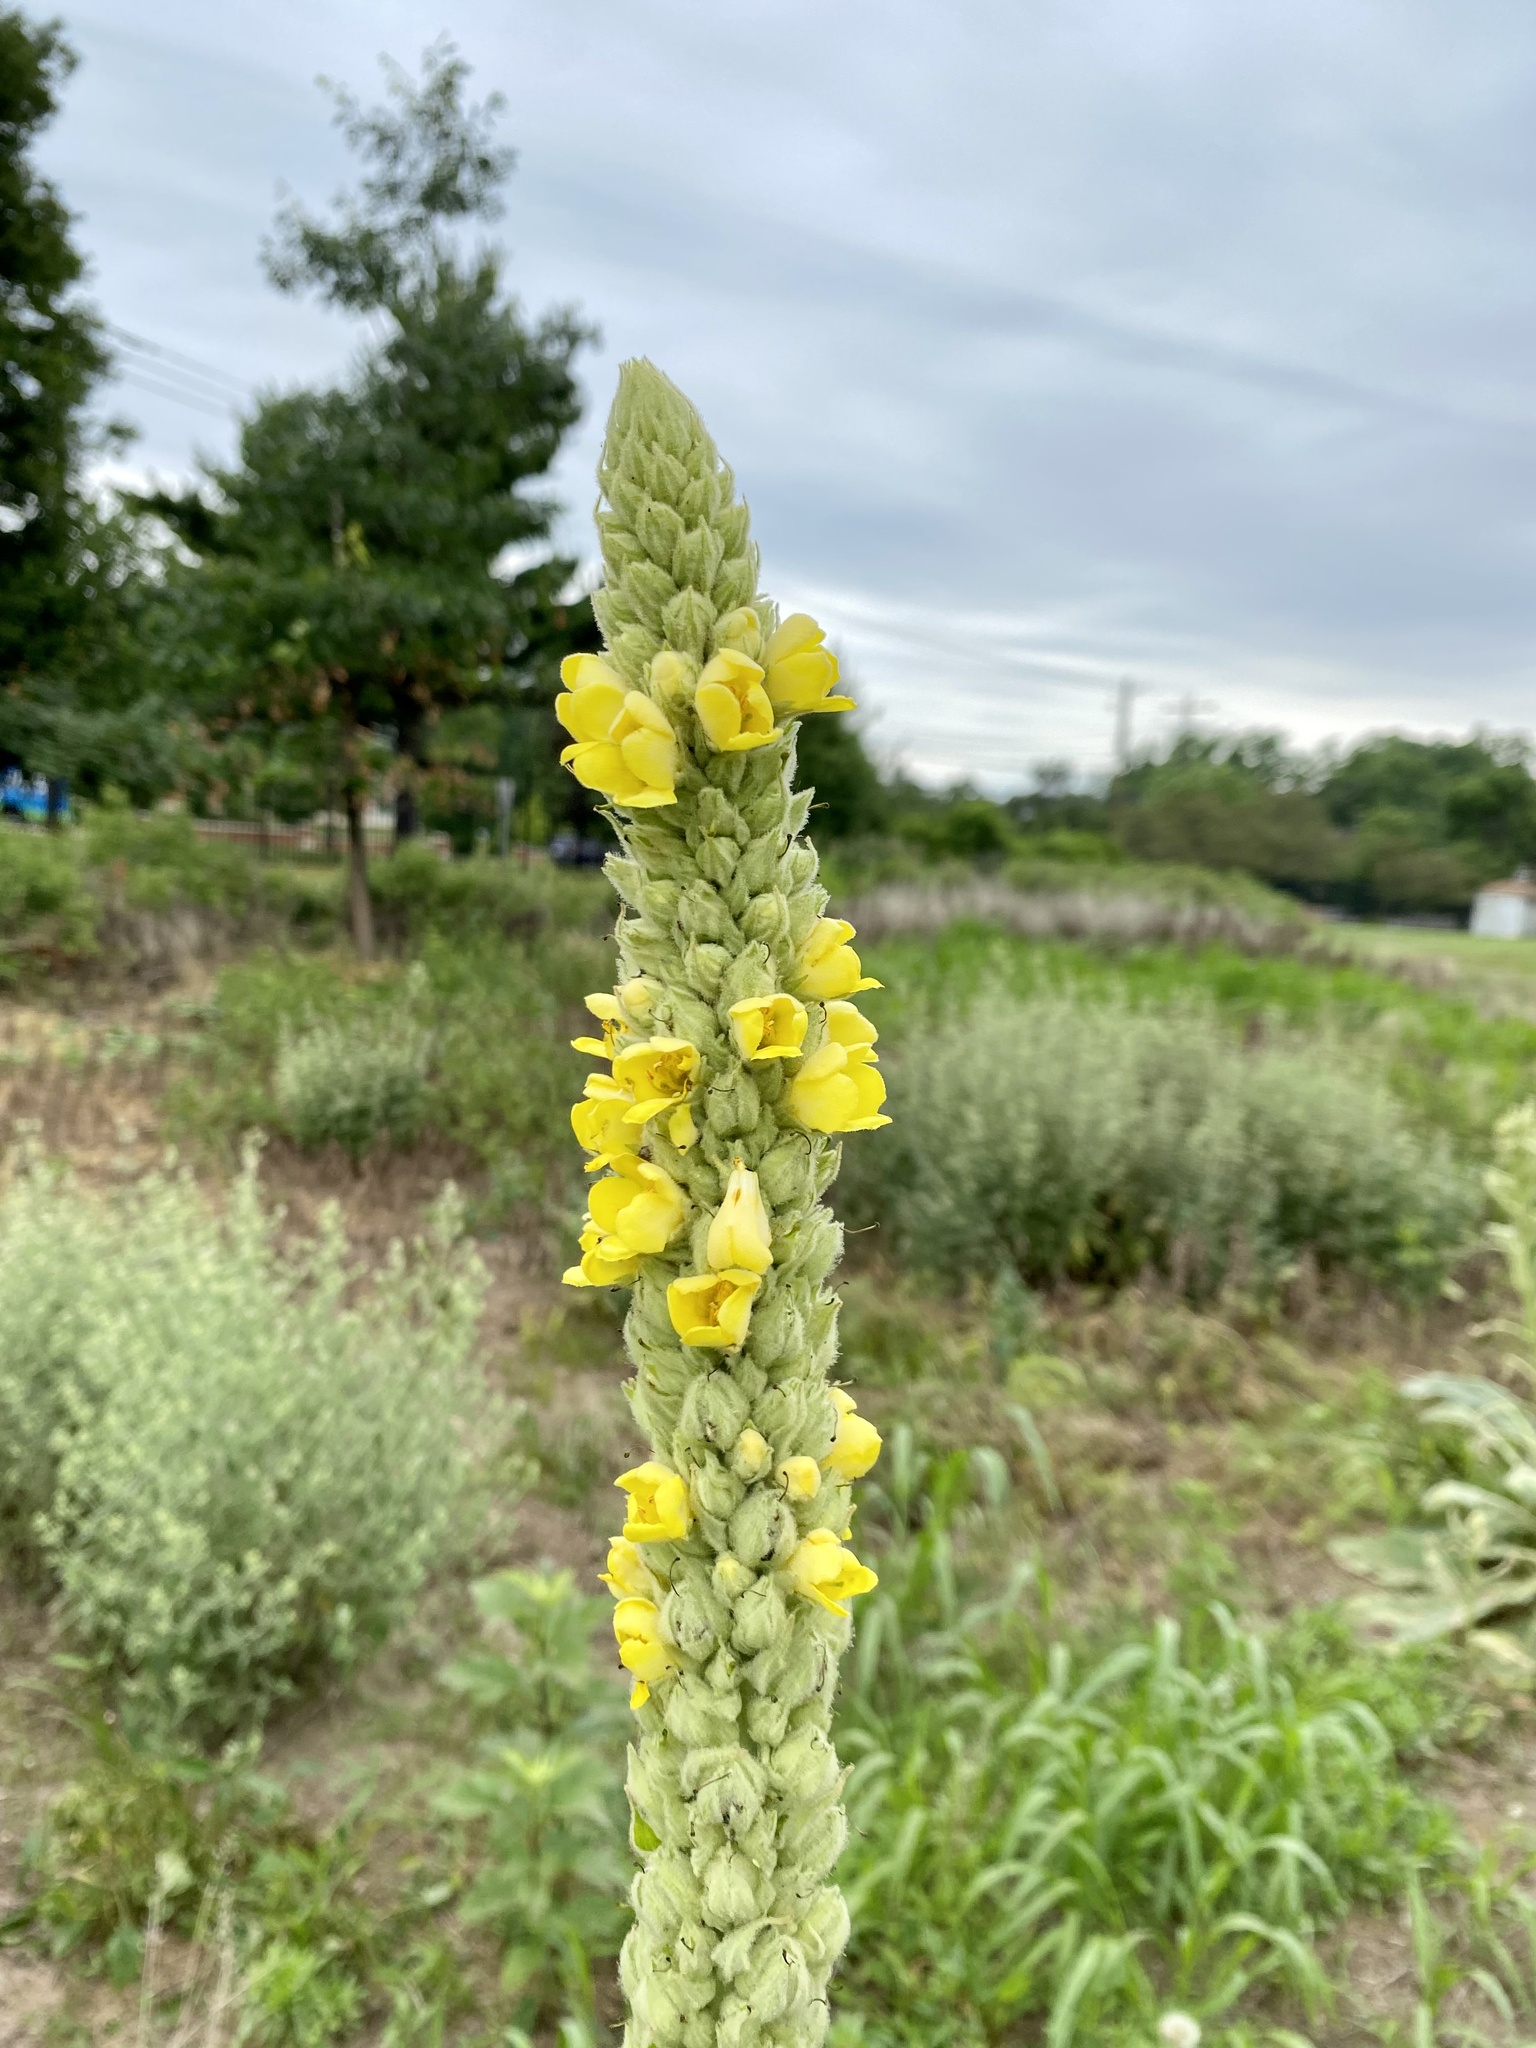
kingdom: Plantae
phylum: Tracheophyta
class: Magnoliopsida
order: Lamiales
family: Scrophulariaceae
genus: Verbascum
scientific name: Verbascum thapsus
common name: Common mullein
